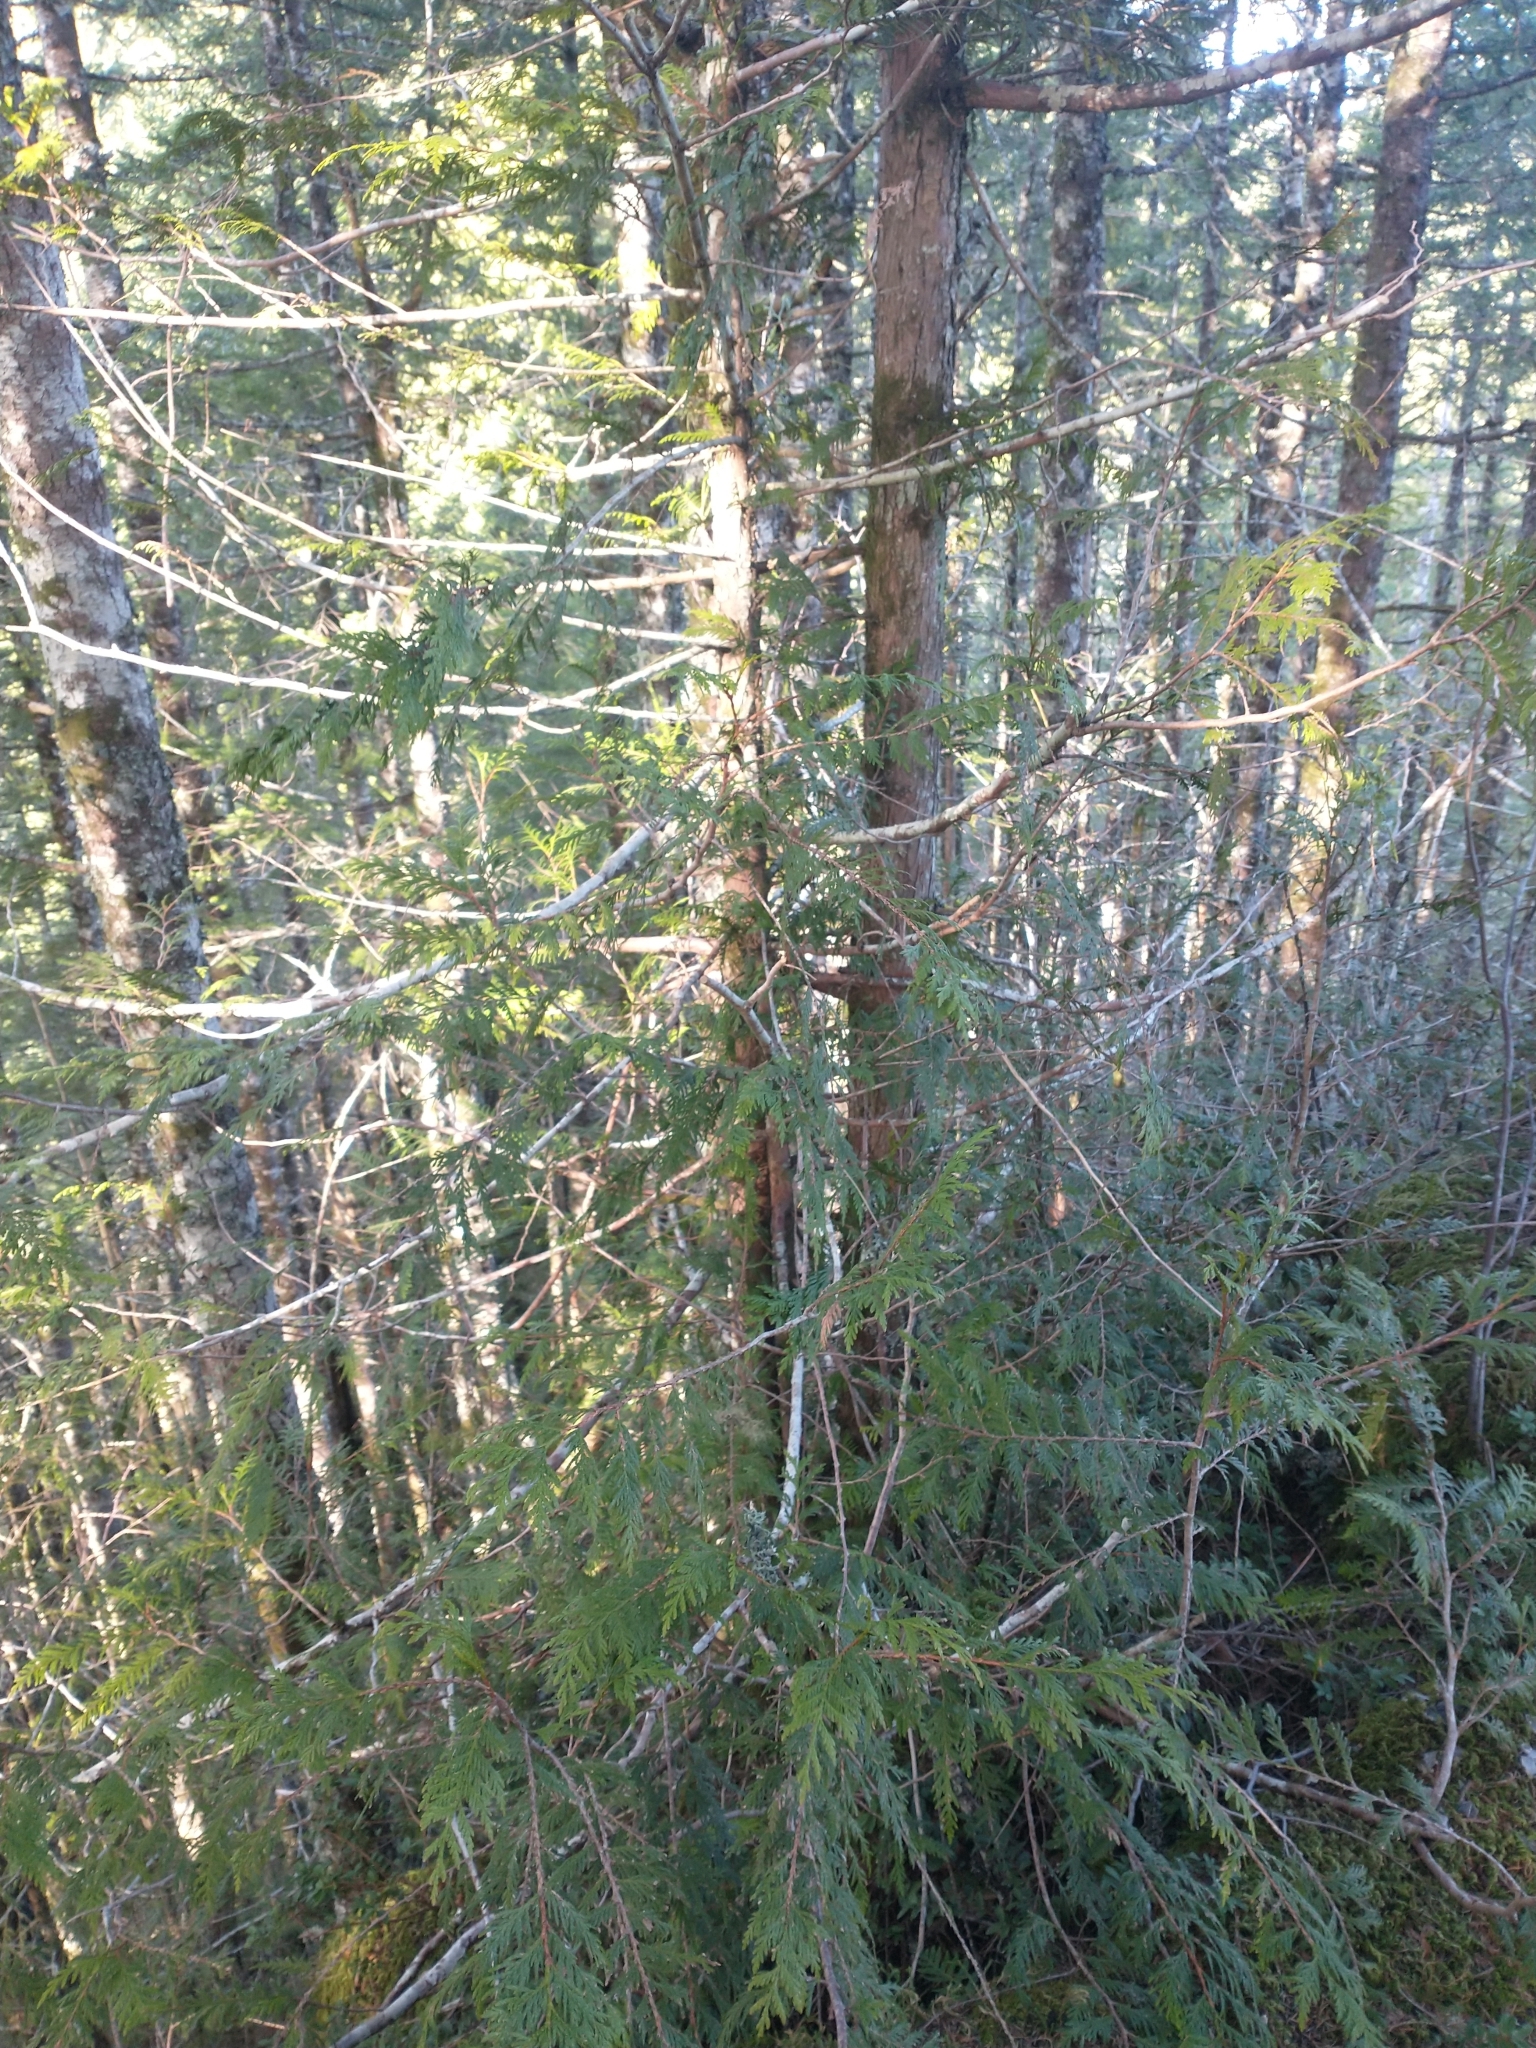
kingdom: Plantae
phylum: Tracheophyta
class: Pinopsida
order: Pinales
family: Cupressaceae
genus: Thuja
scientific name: Thuja plicata
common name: Western red-cedar
